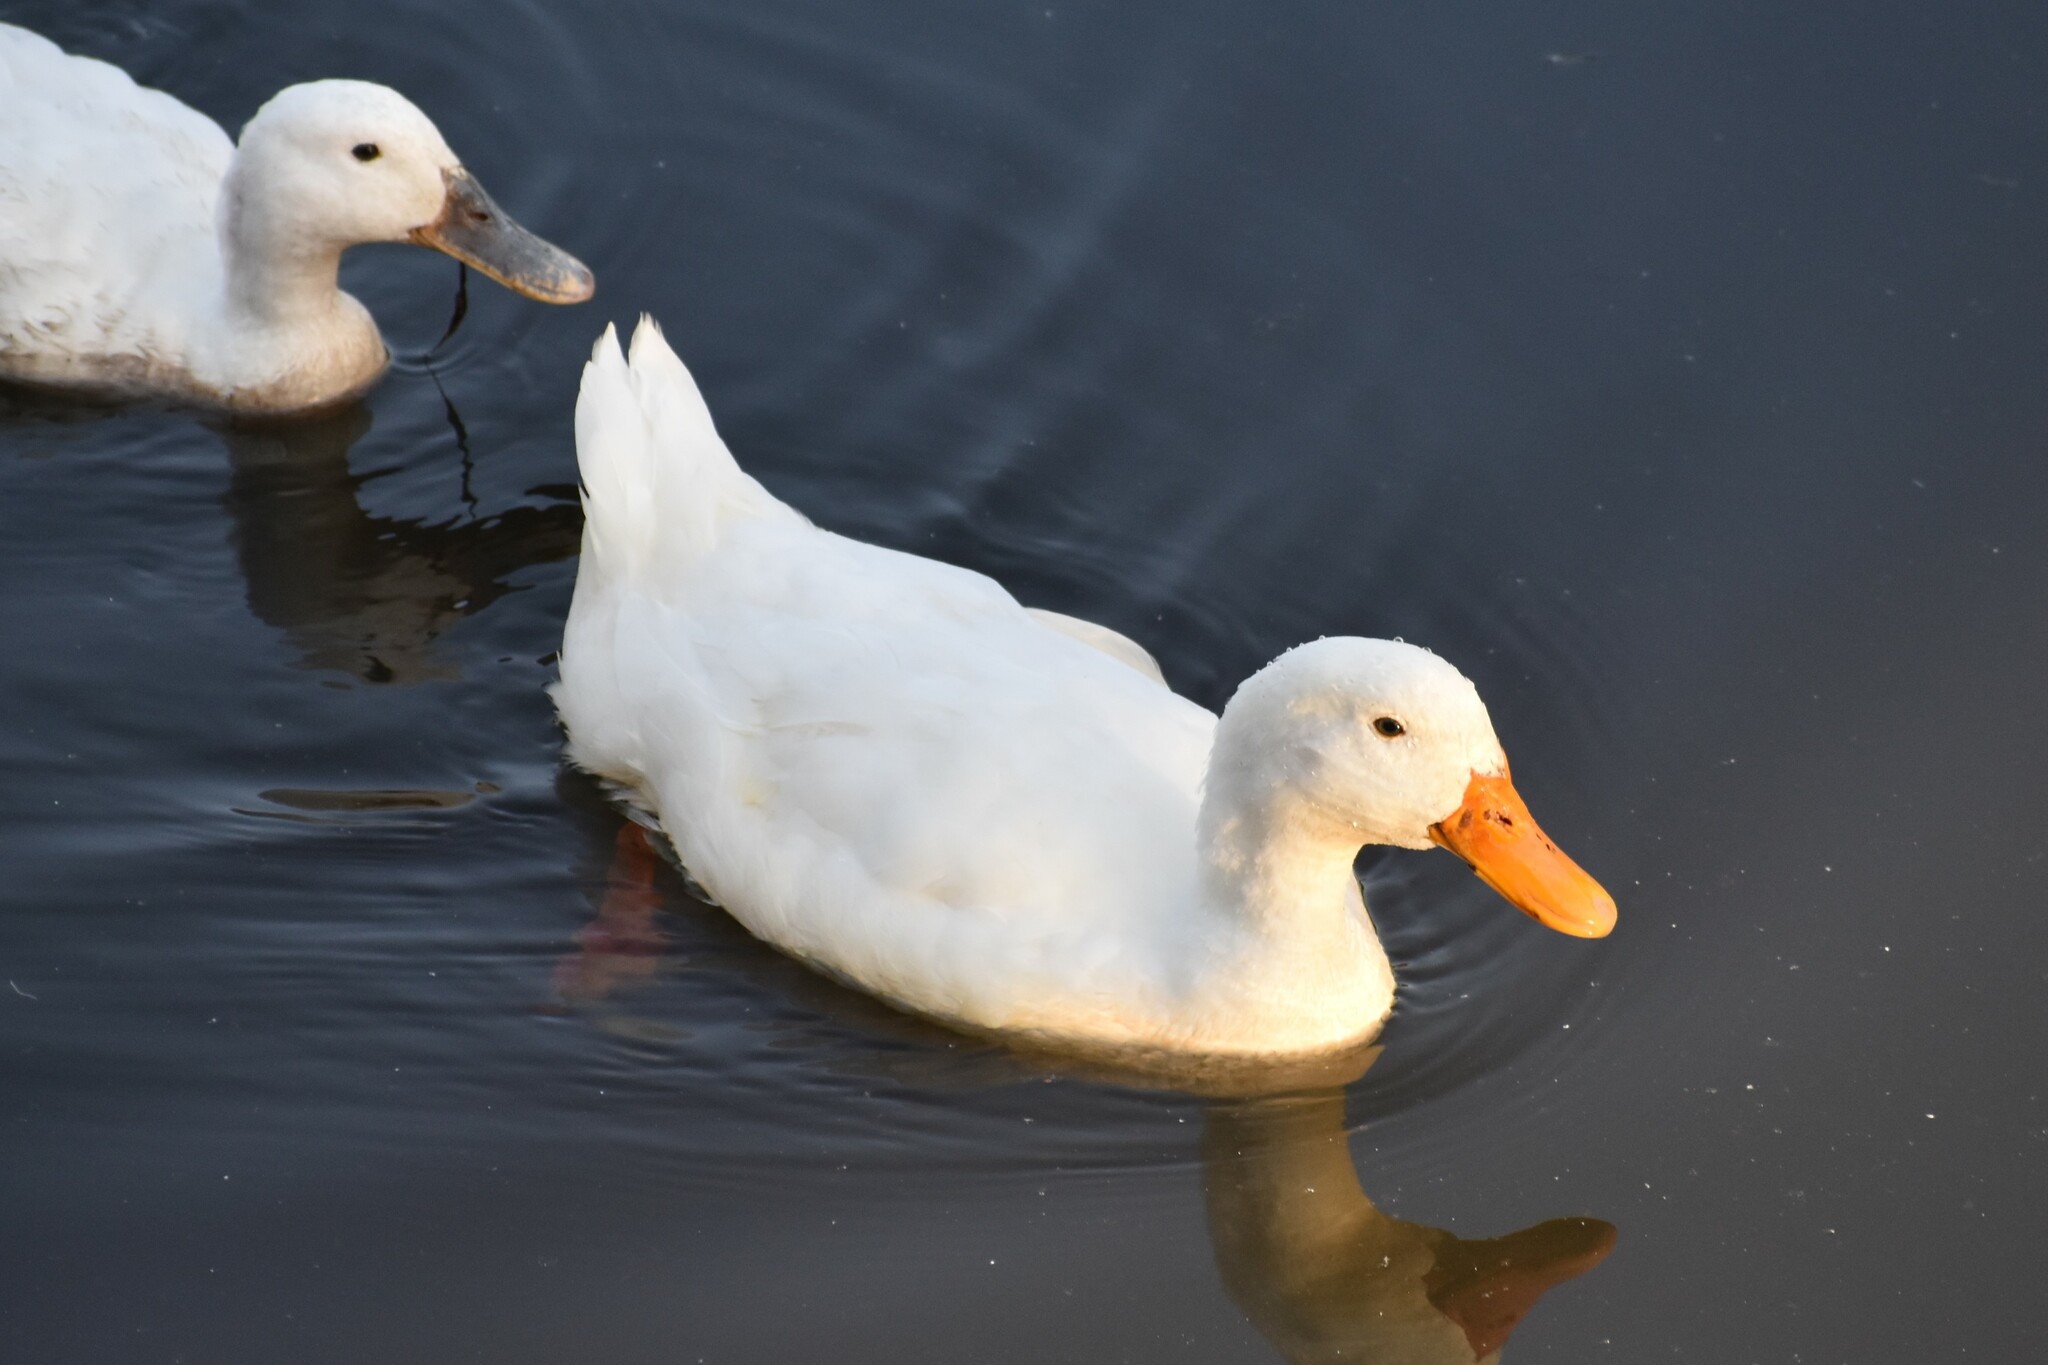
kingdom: Animalia
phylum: Chordata
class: Aves
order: Anseriformes
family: Anatidae
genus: Anas
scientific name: Anas platyrhynchos
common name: Mallard
